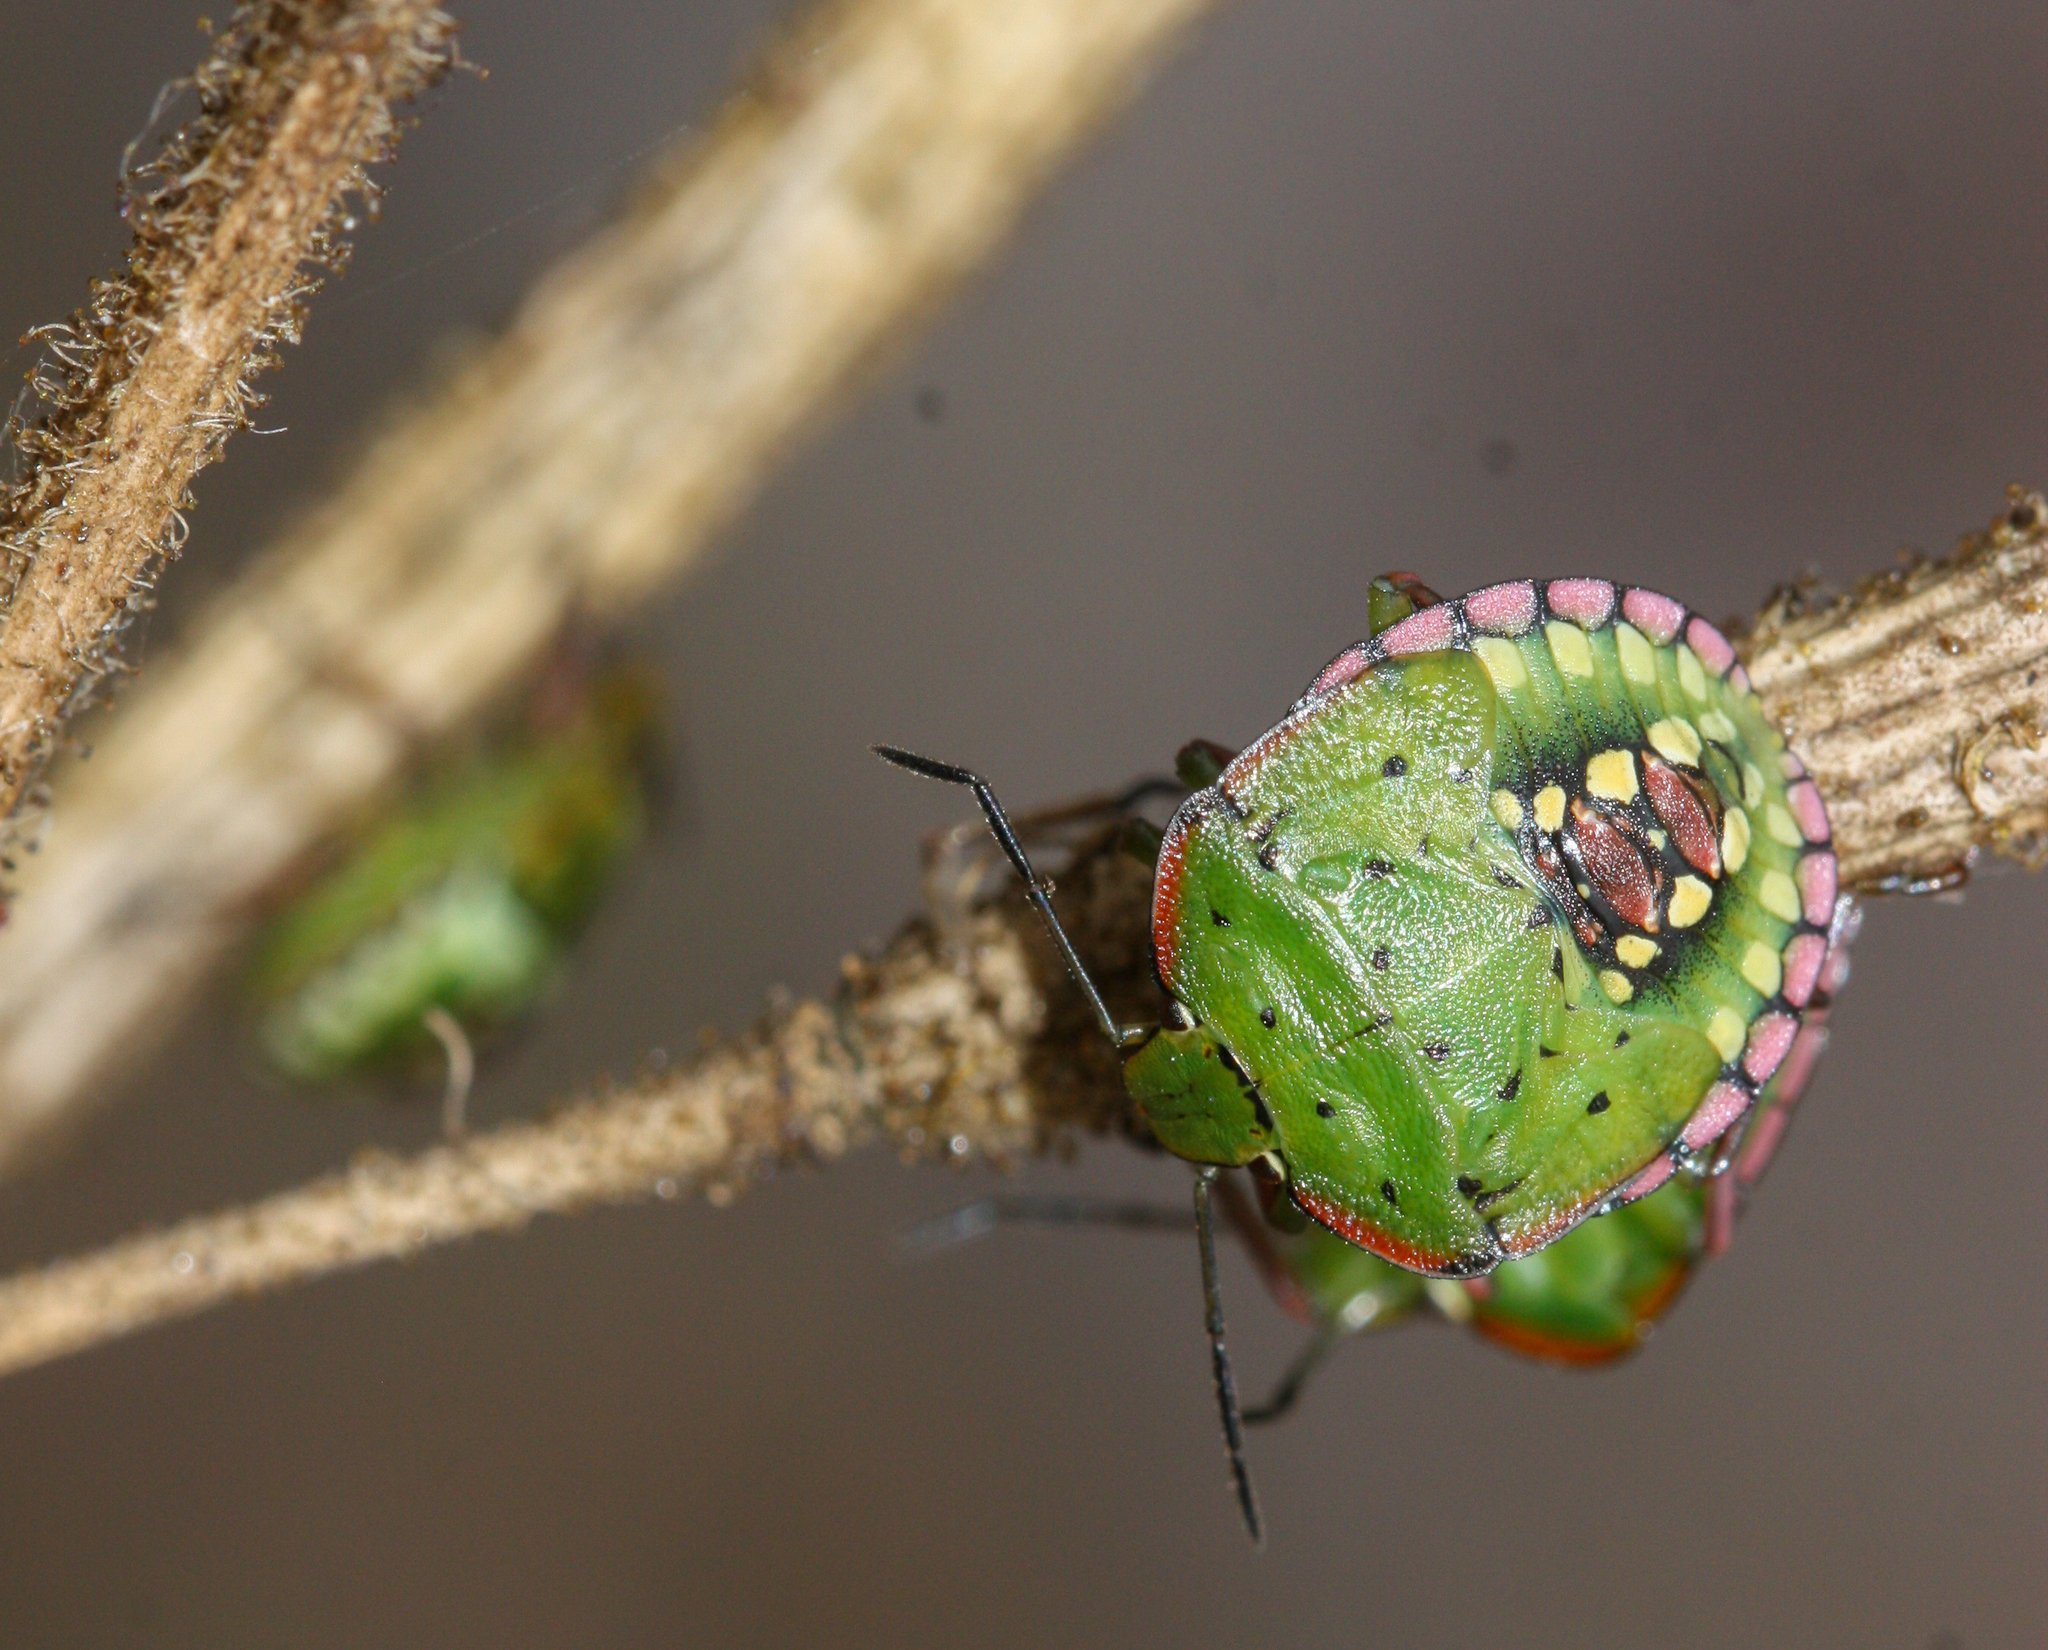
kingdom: Animalia
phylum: Arthropoda
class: Insecta
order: Hemiptera
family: Pentatomidae
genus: Nezara
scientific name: Nezara viridula
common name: Southern green stink bug
